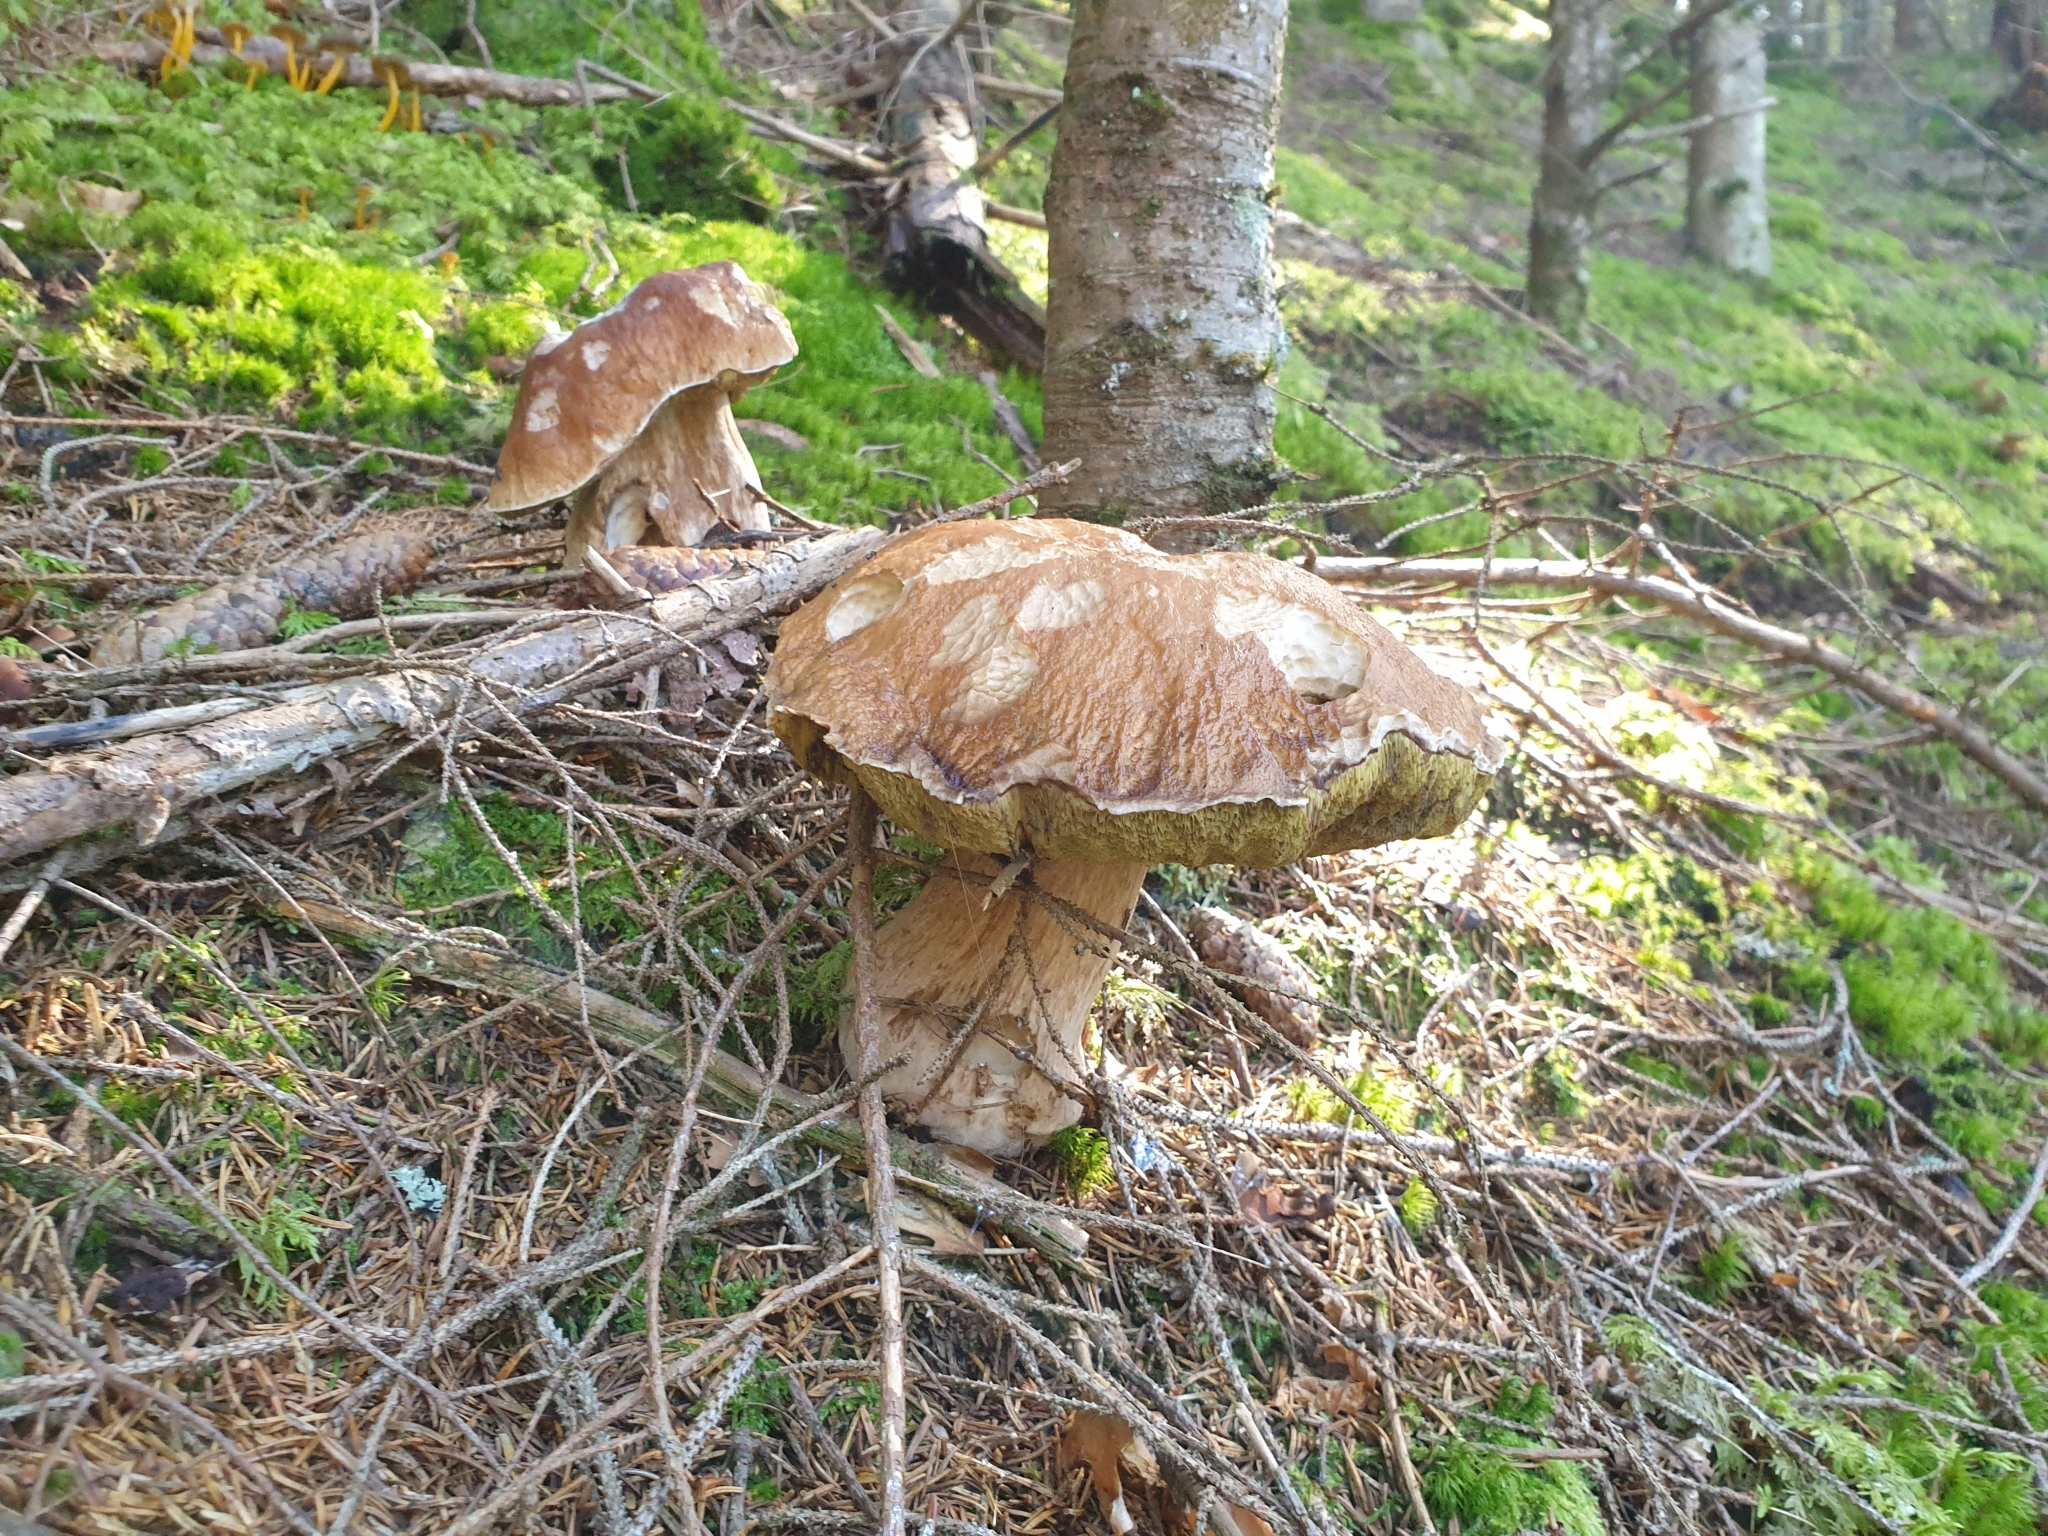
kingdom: Fungi
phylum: Basidiomycota
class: Agaricomycetes
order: Boletales
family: Boletaceae
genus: Boletus
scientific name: Boletus edulis
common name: Cep
